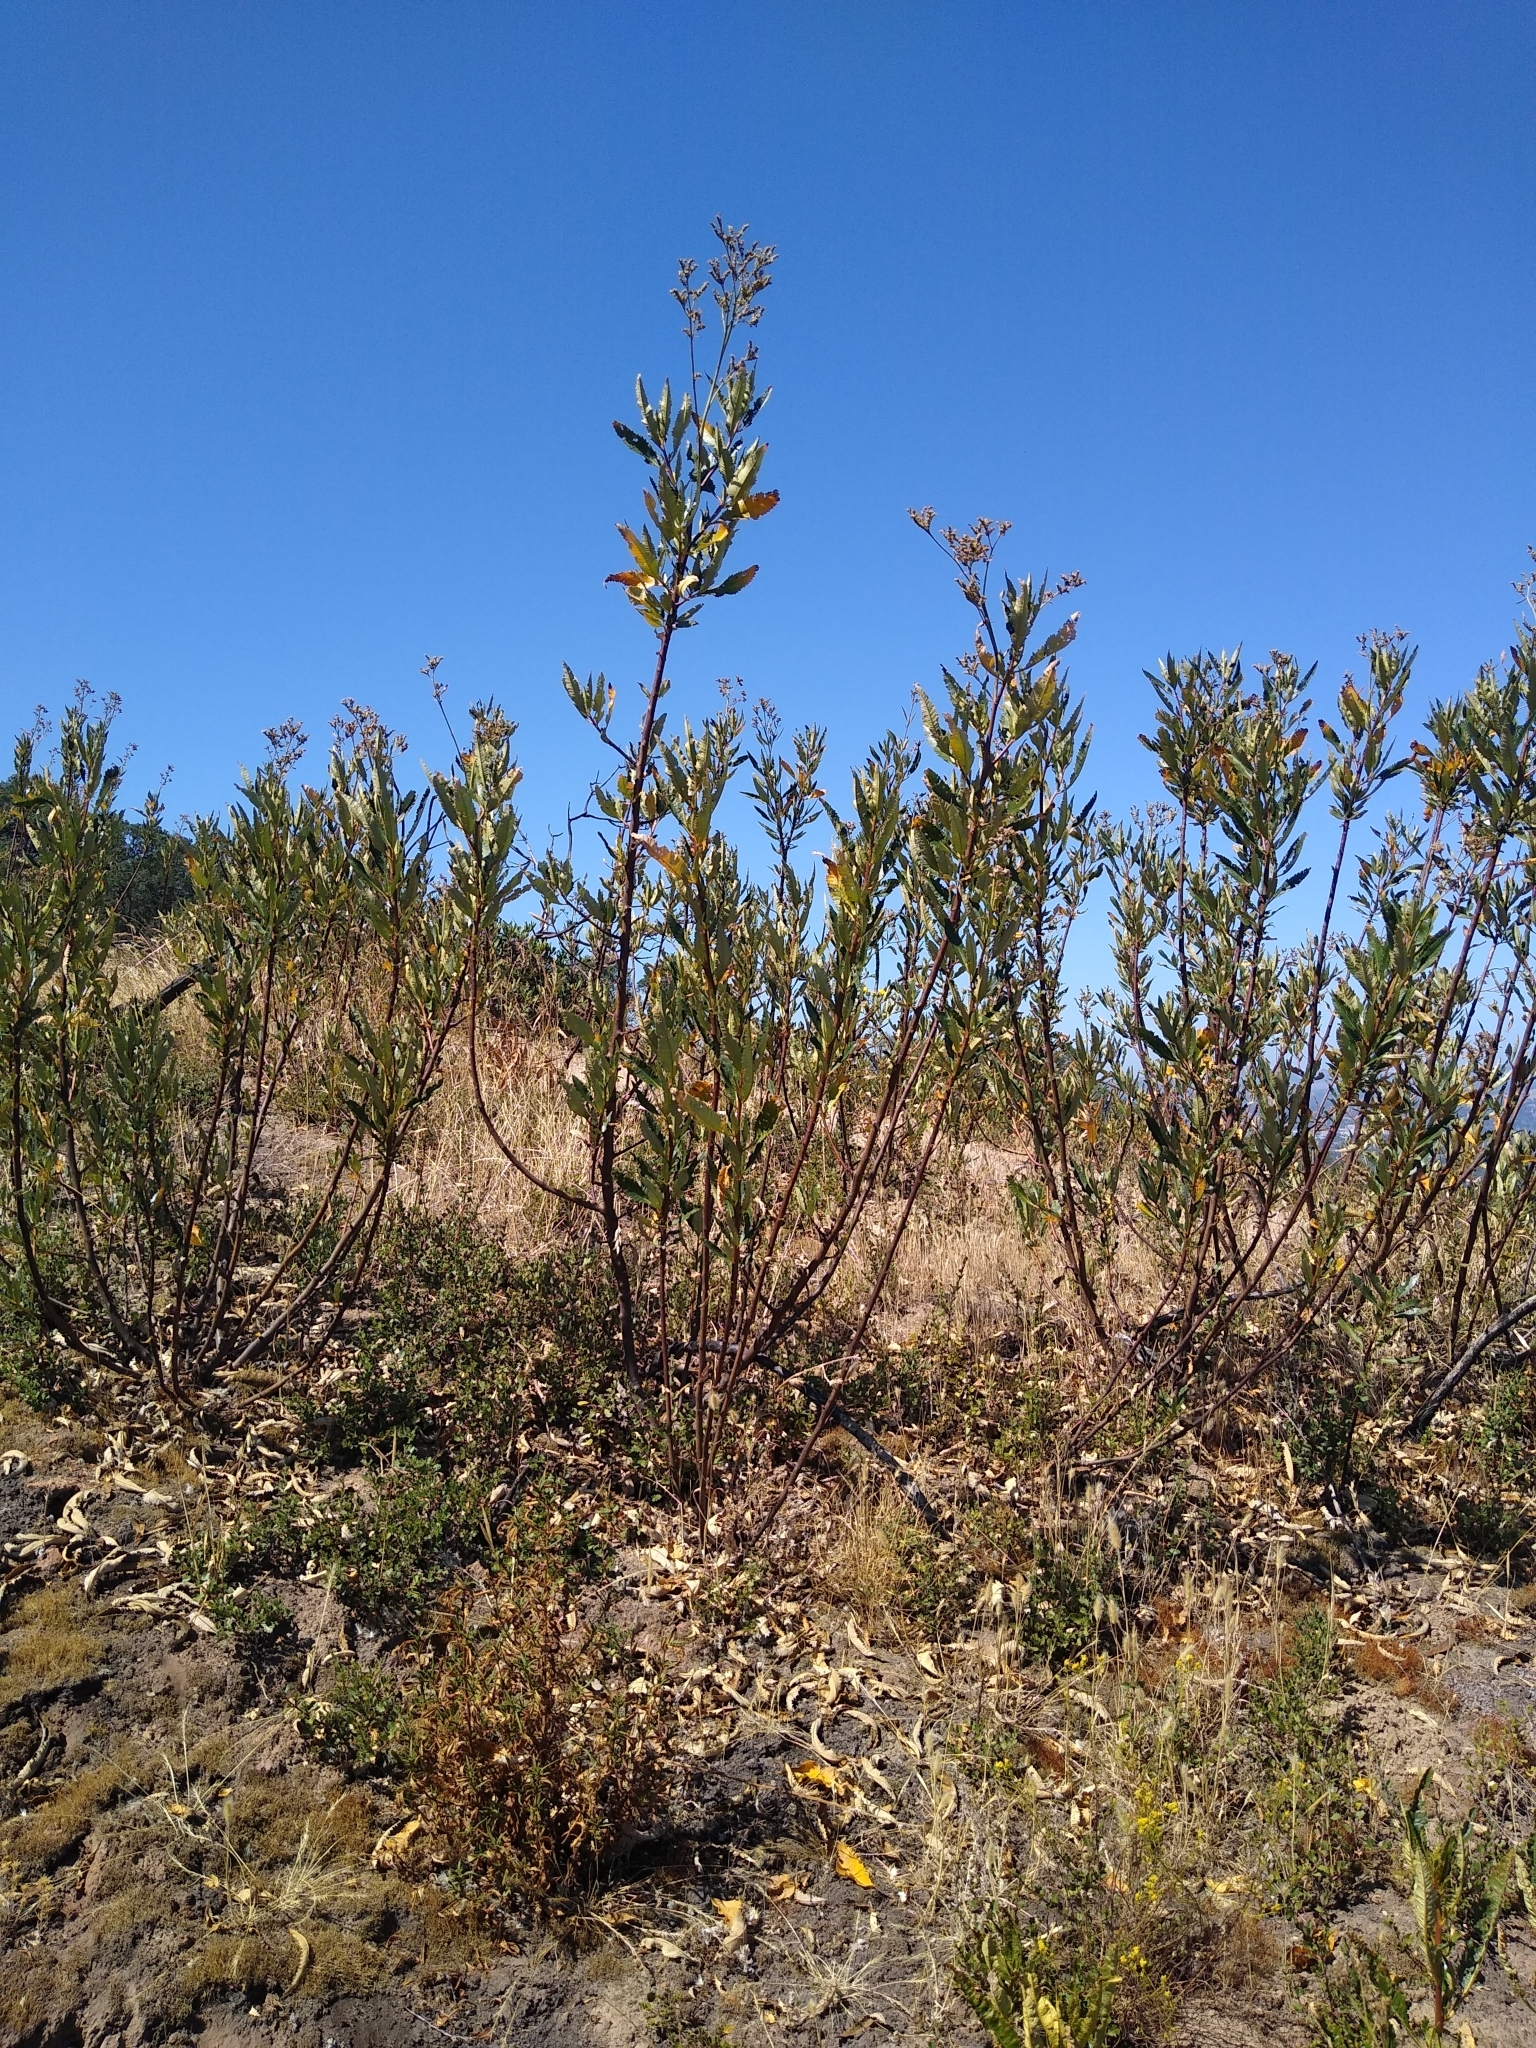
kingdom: Plantae
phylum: Tracheophyta
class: Magnoliopsida
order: Boraginales
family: Namaceae
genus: Eriodictyon
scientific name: Eriodictyon californicum
